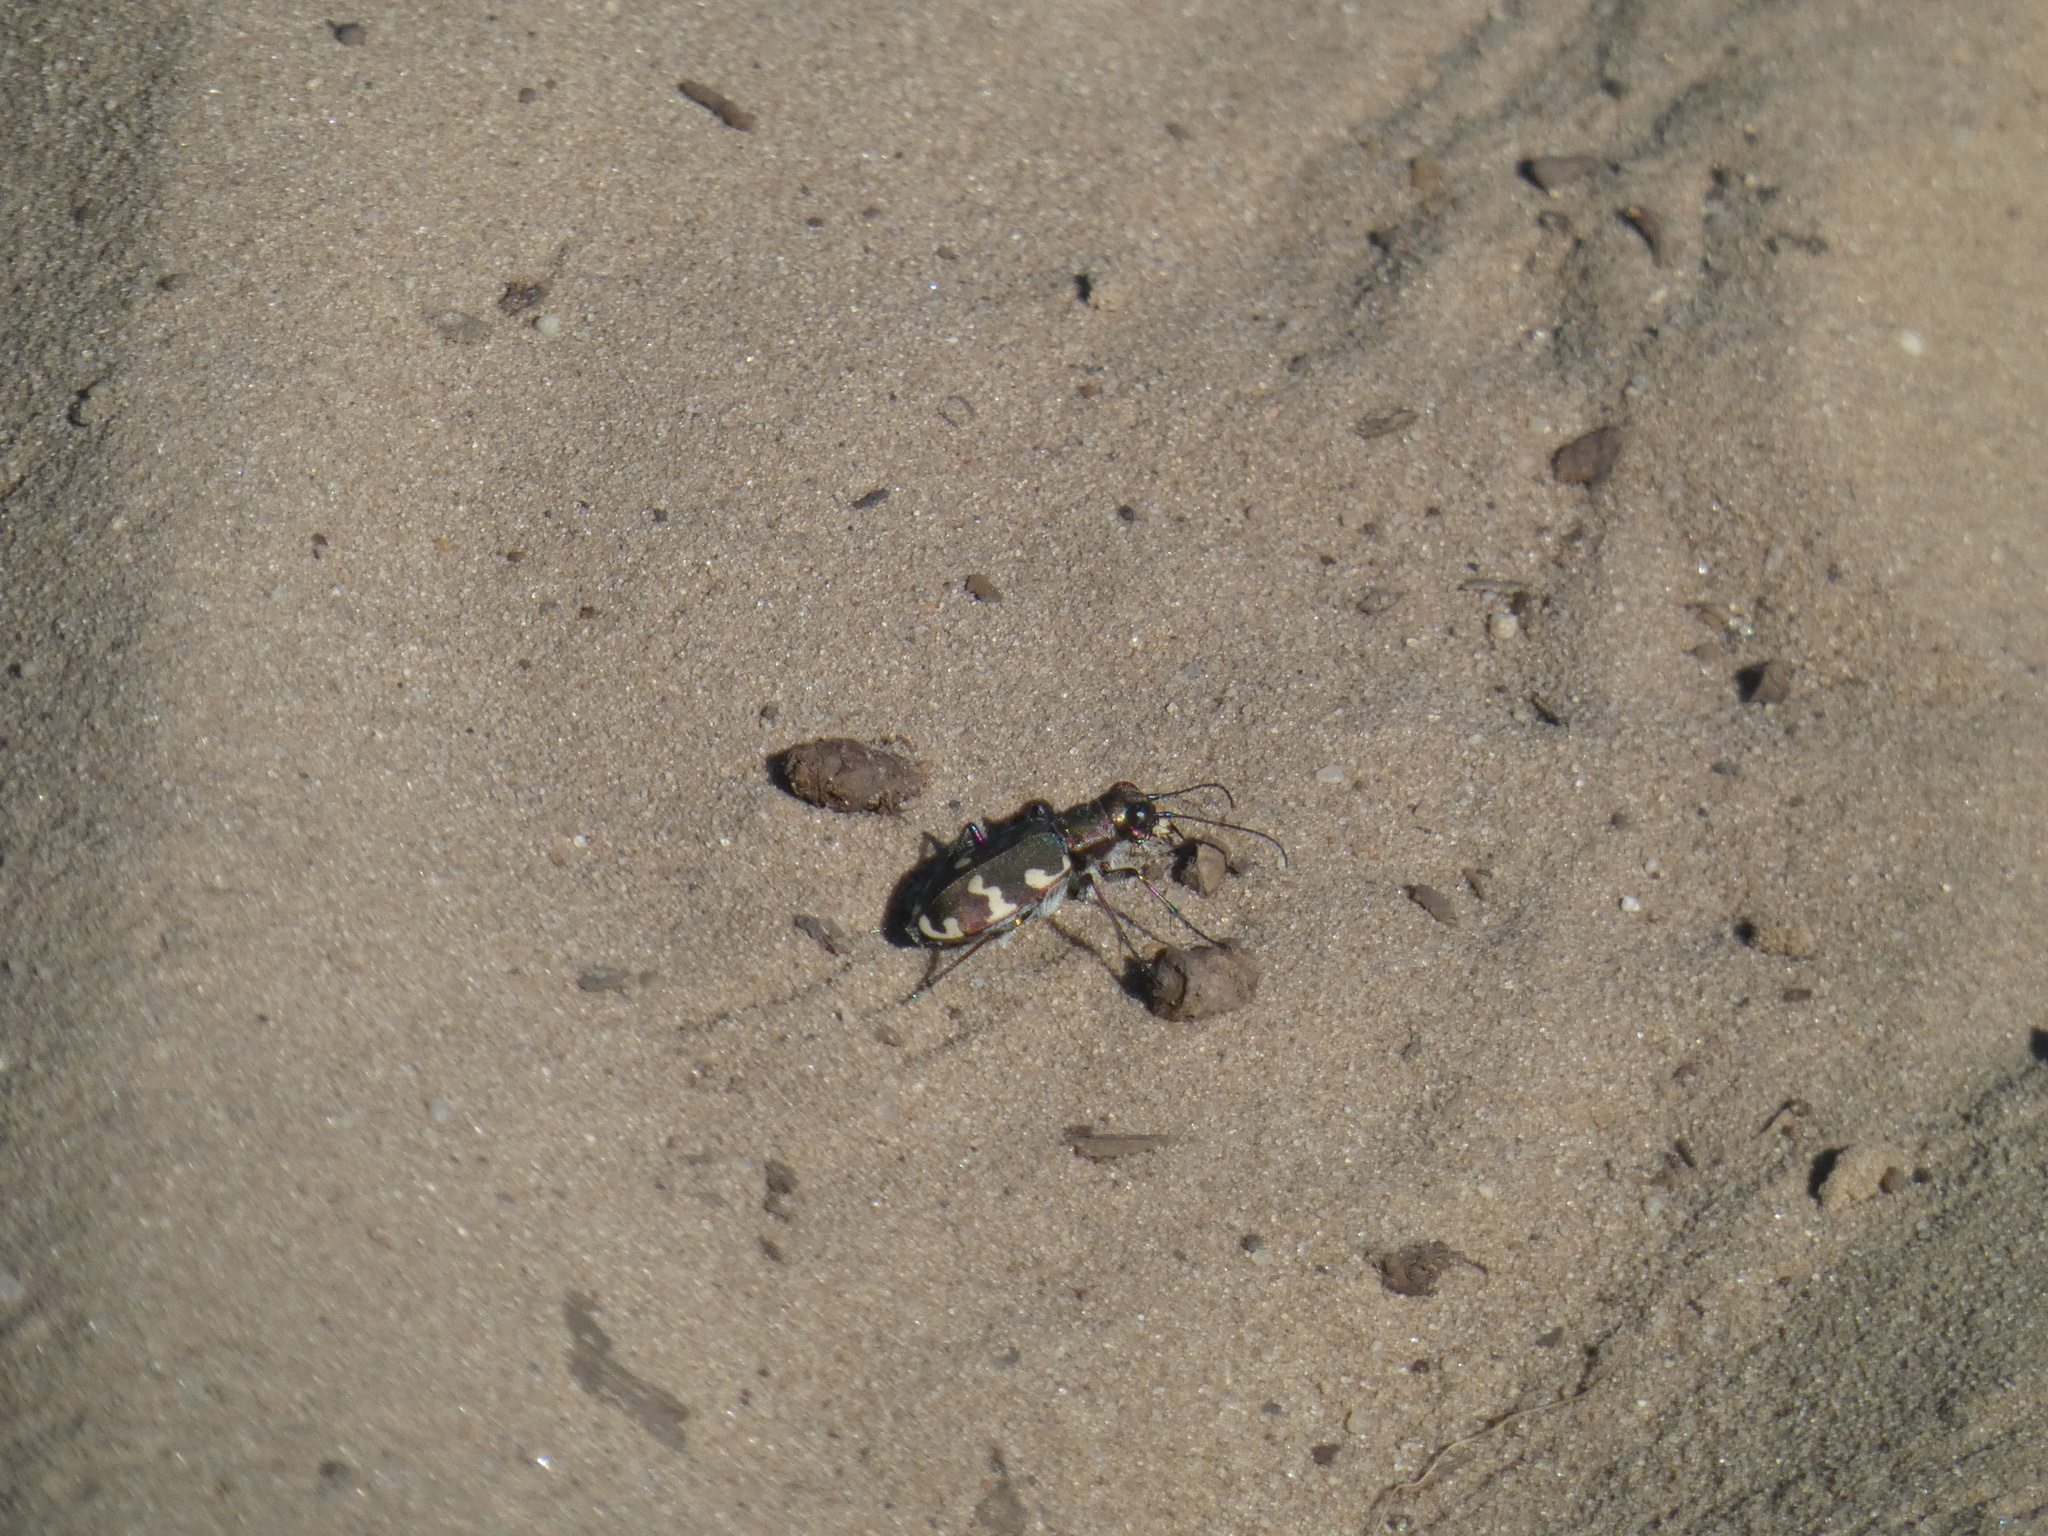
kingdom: Animalia
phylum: Arthropoda
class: Insecta
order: Coleoptera
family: Carabidae
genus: Cicindela
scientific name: Cicindela hybrida
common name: Northern dune tiger beetle
